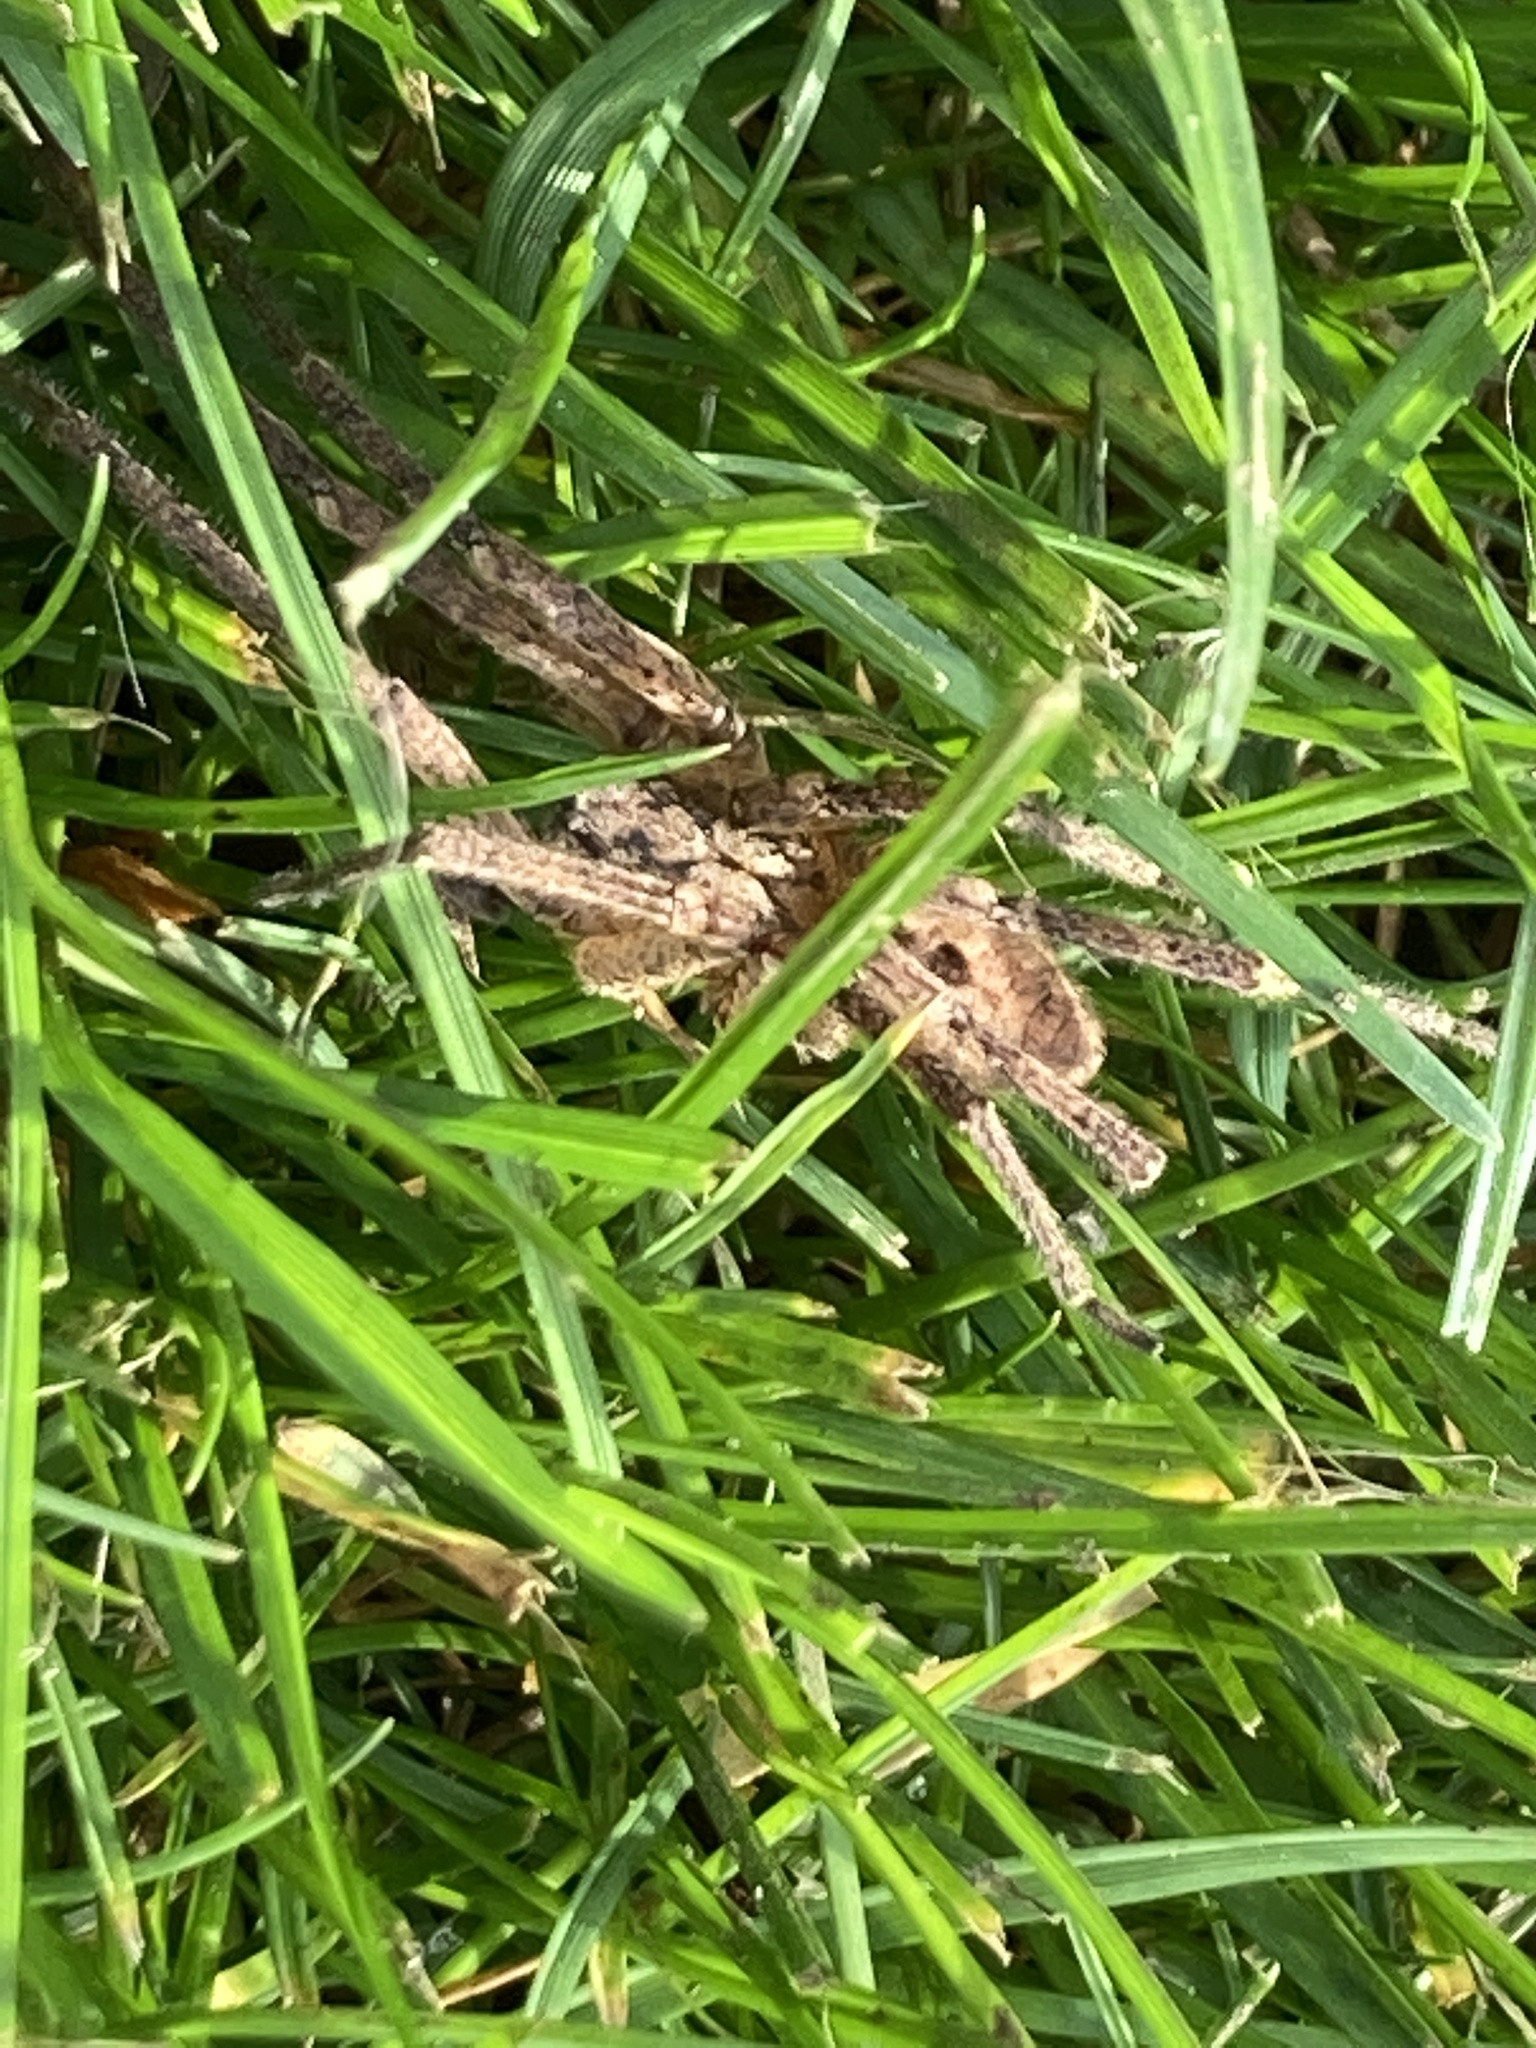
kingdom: Animalia
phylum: Arthropoda
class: Arachnida
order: Araneae
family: Zoropsidae
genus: Zoropsis
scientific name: Zoropsis spinimana
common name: Zoropsid spider
